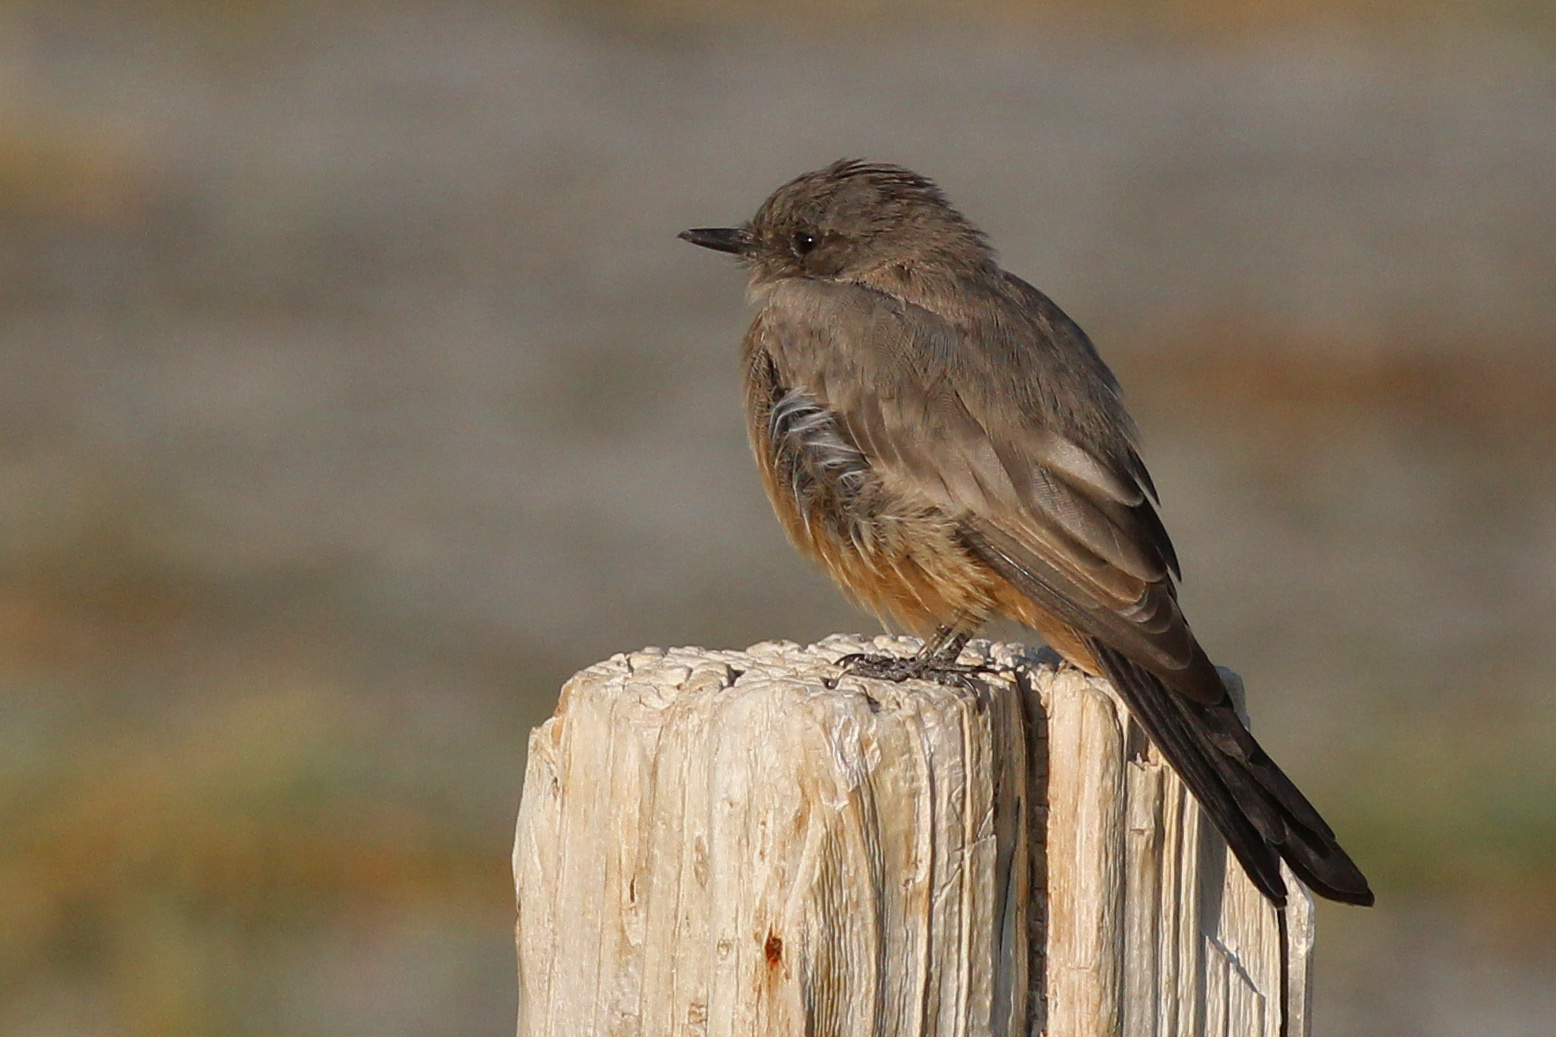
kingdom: Animalia
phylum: Chordata
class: Aves
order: Passeriformes
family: Tyrannidae
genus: Sayornis
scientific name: Sayornis saya
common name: Say's phoebe
